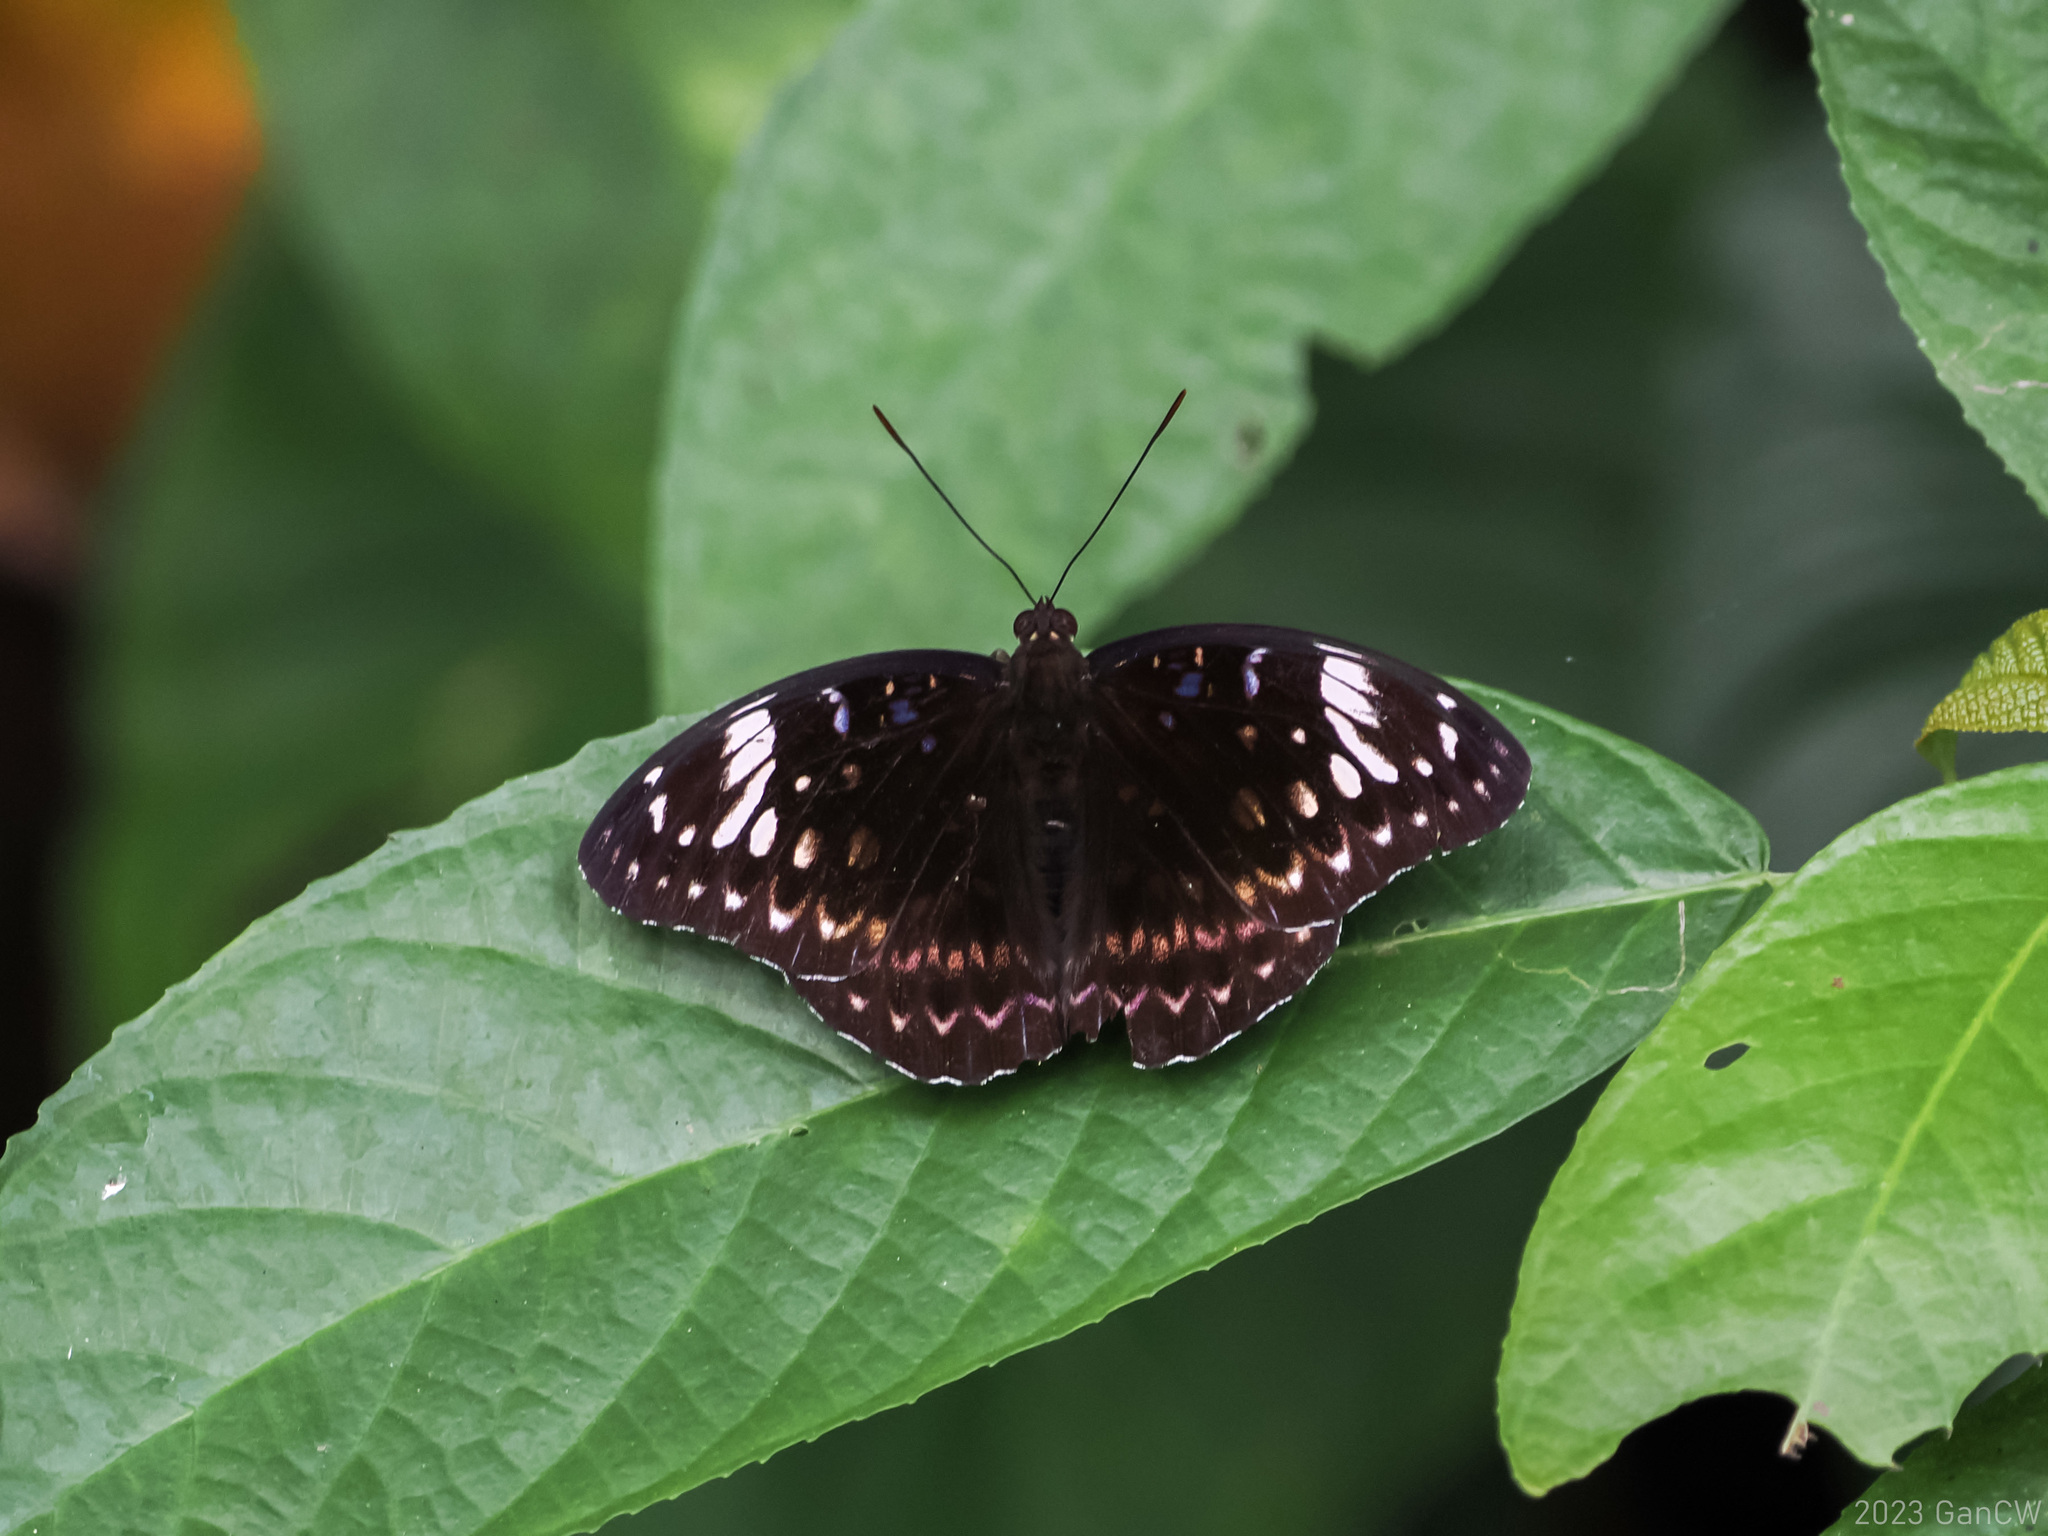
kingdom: Animalia
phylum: Arthropoda
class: Insecta
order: Lepidoptera
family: Nymphalidae
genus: Lexias
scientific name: Lexias aeetes
